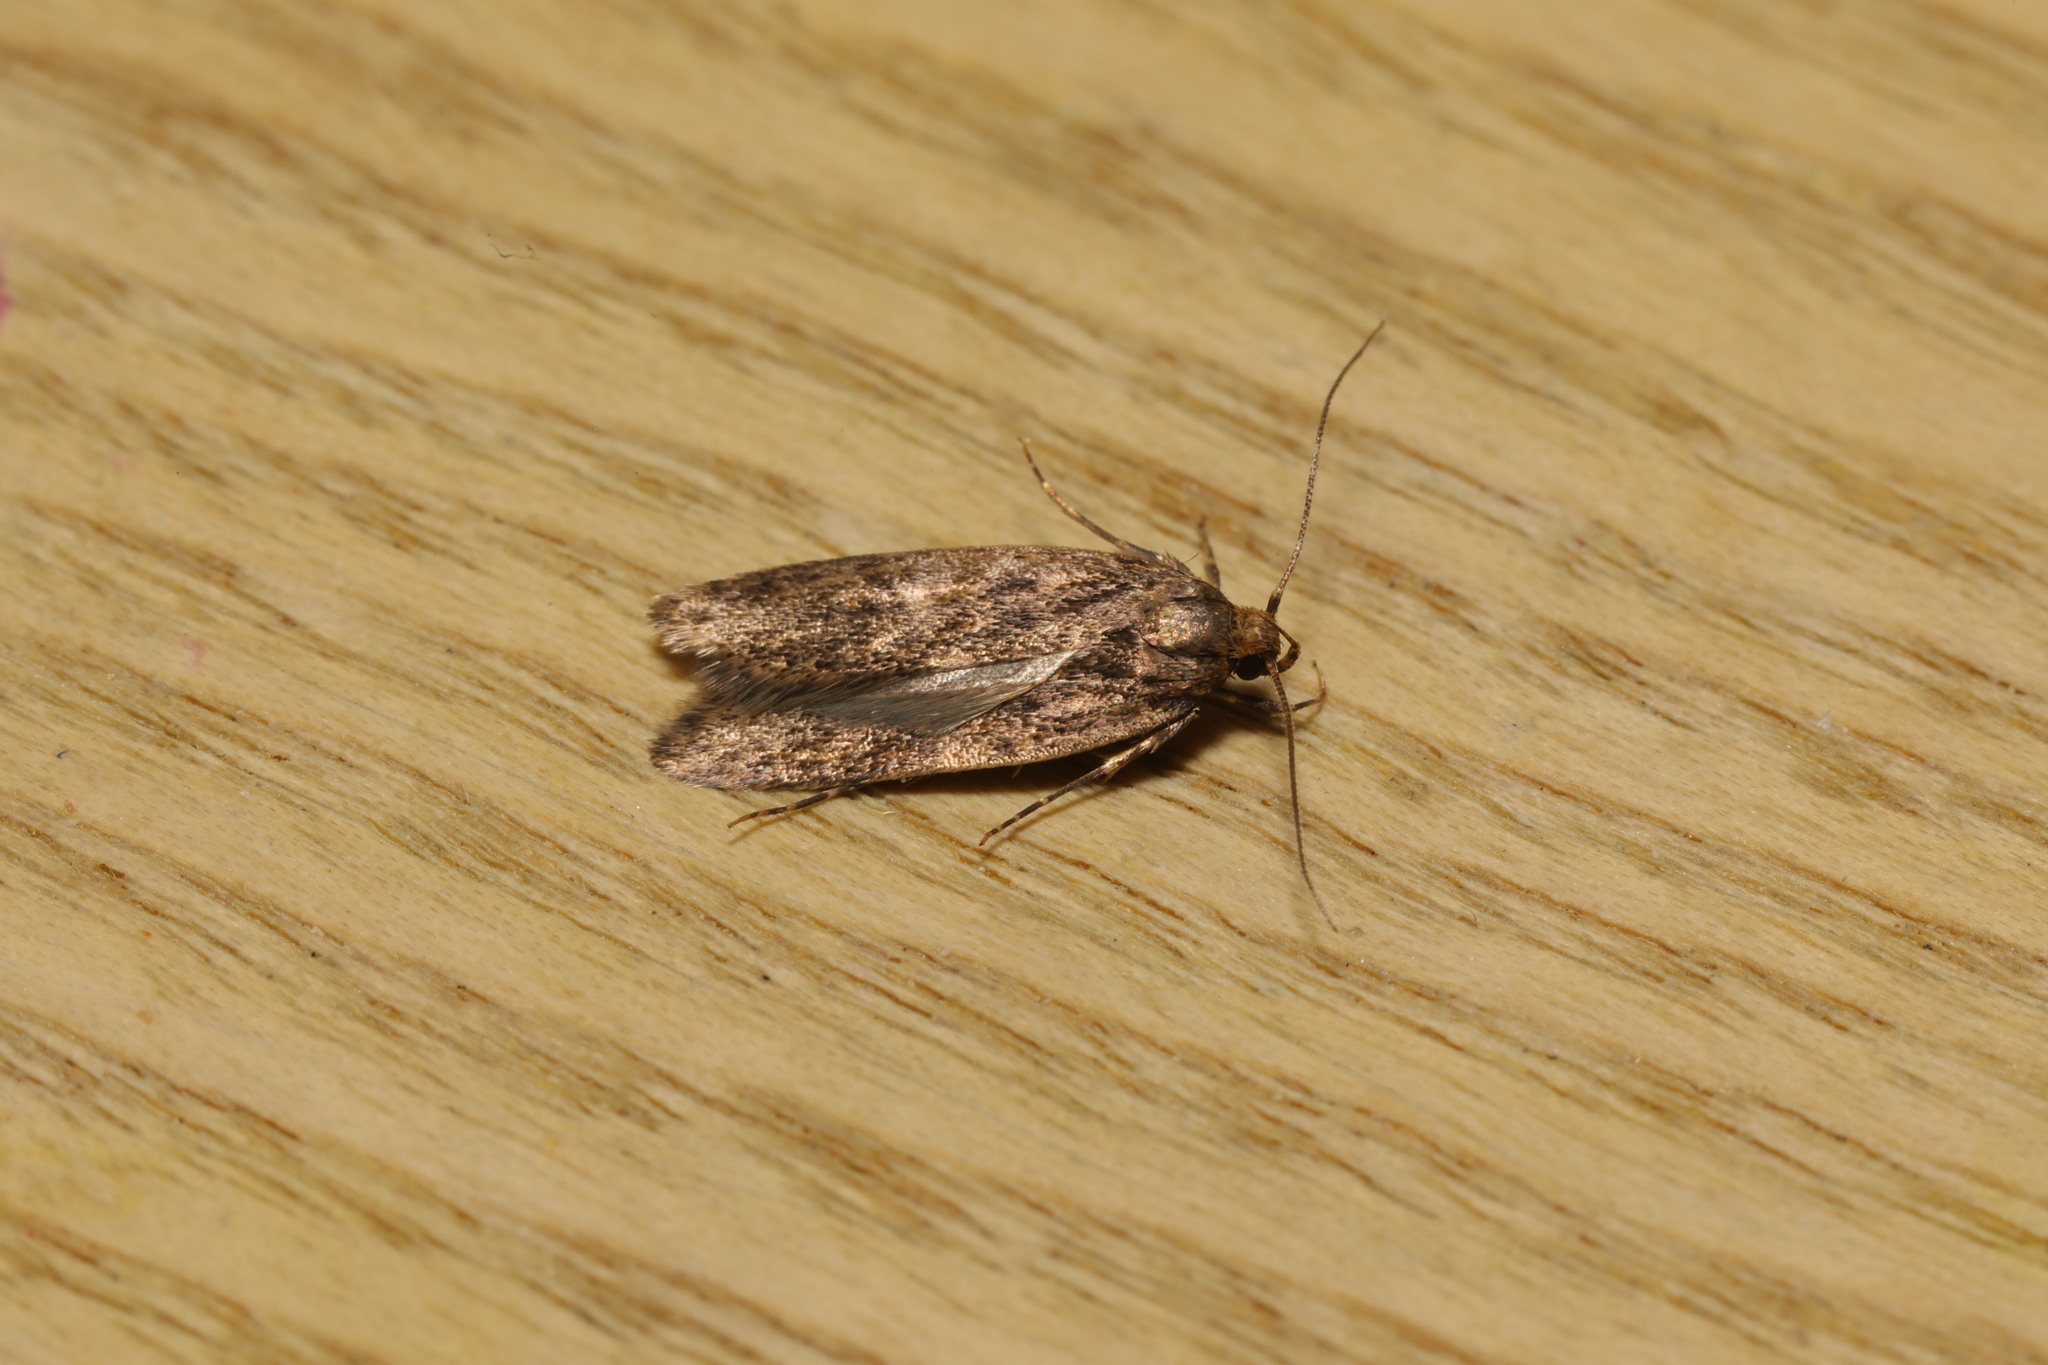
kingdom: Animalia
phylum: Arthropoda
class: Insecta
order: Lepidoptera
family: Oecophoridae
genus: Hofmannophila
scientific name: Hofmannophila pseudospretella
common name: Brown house moth
